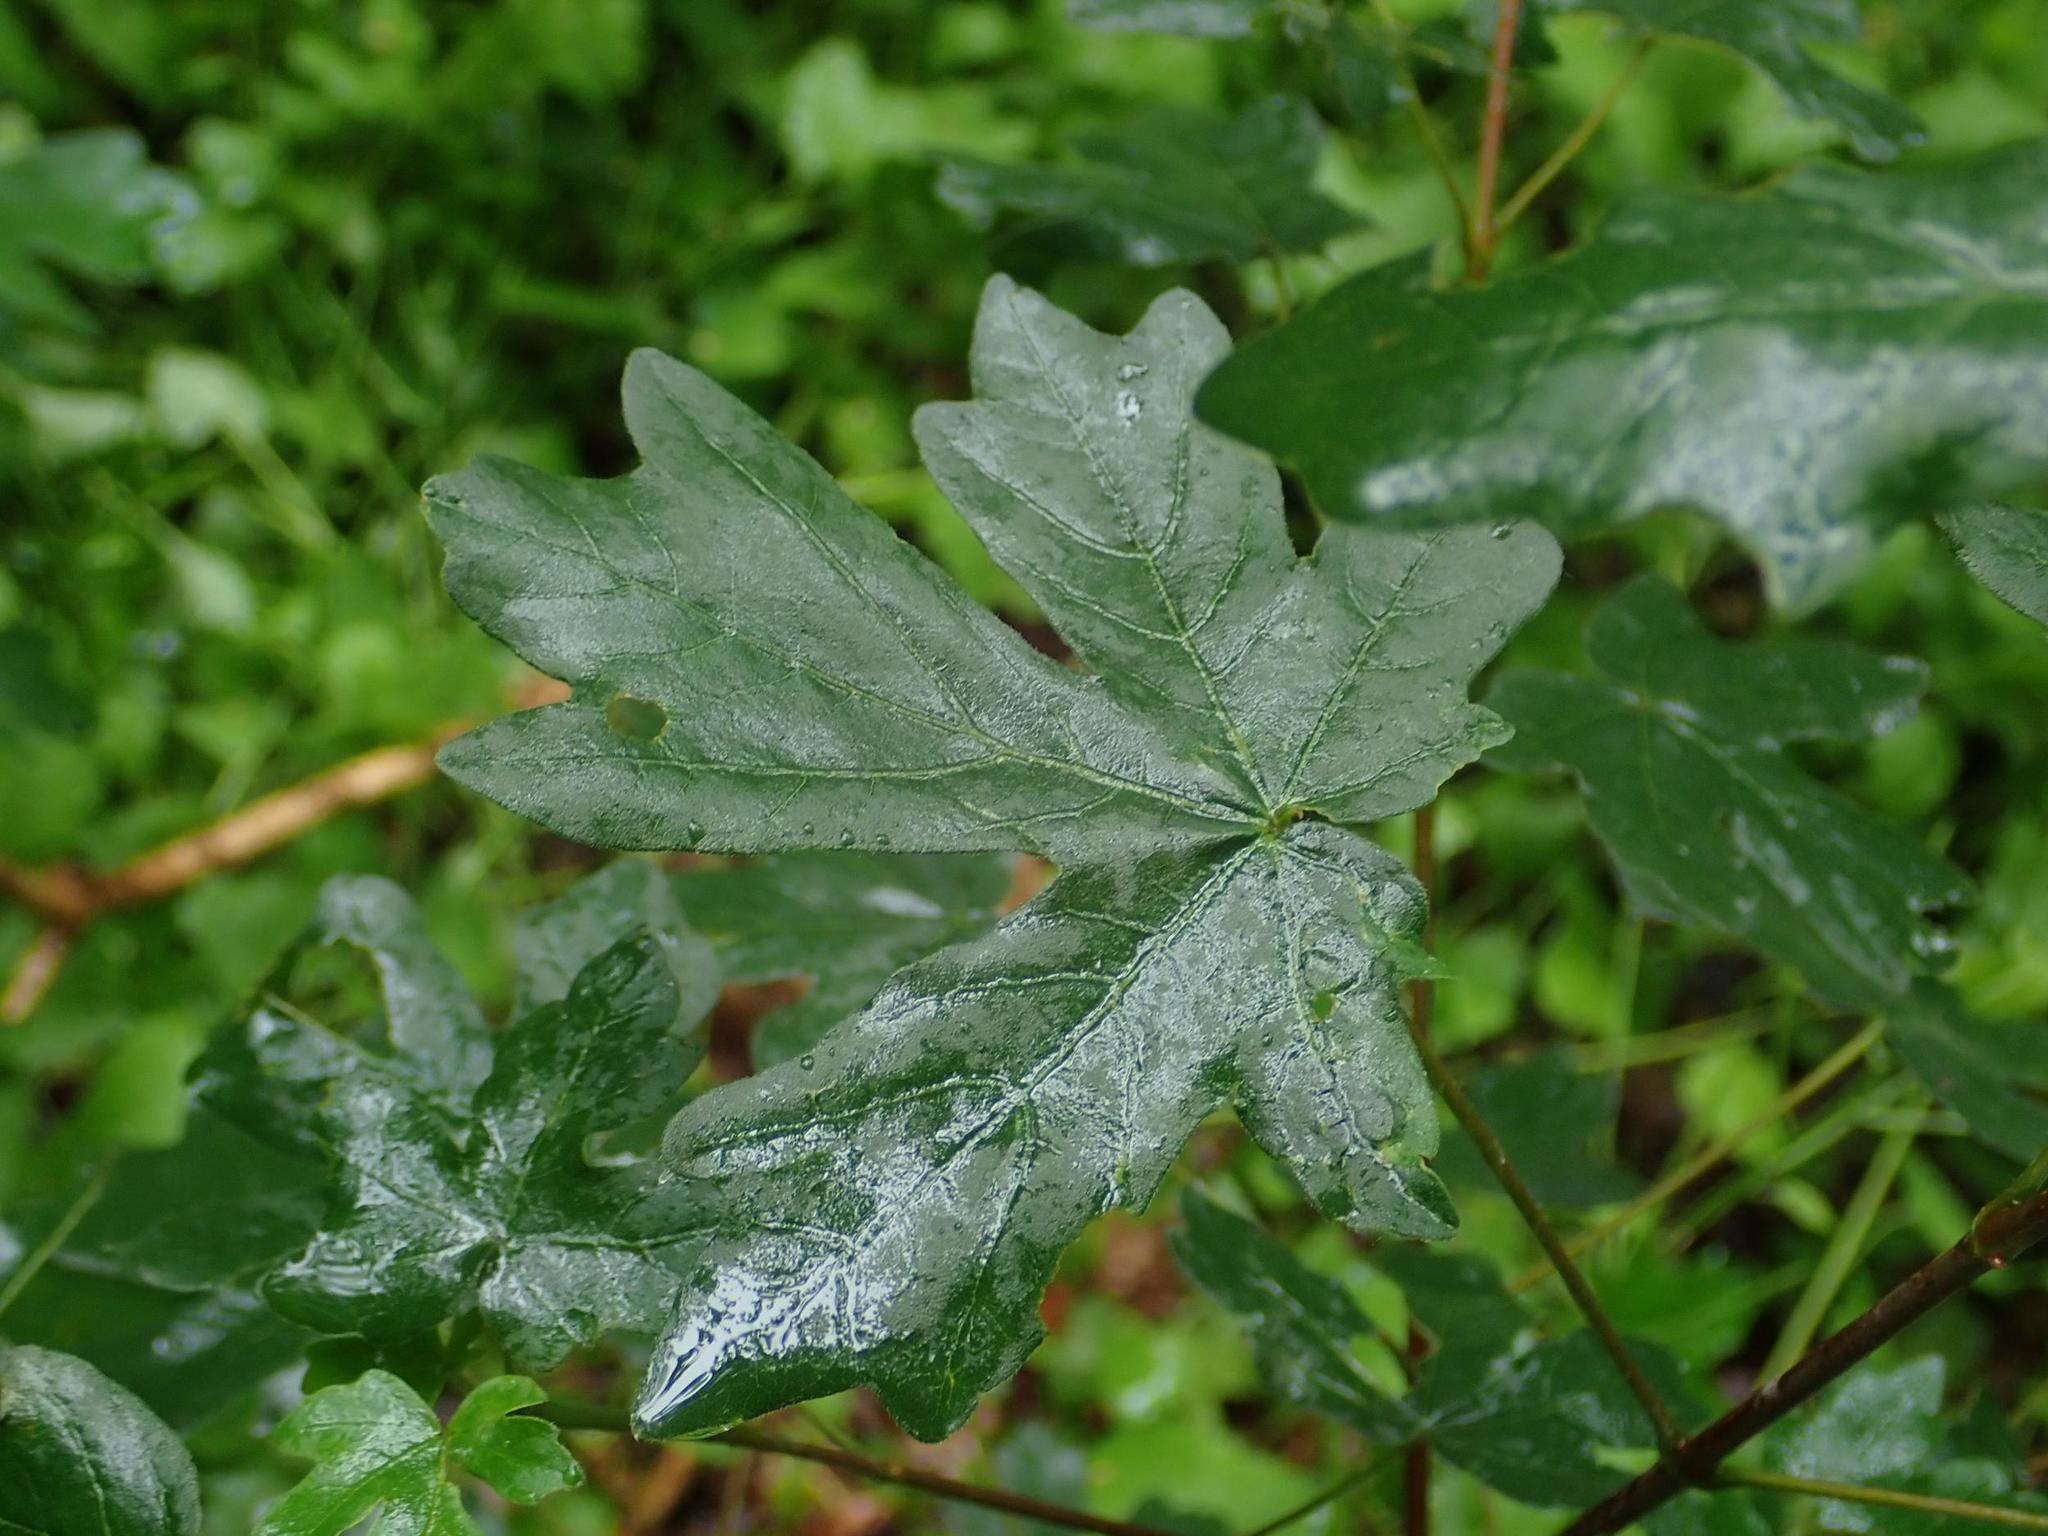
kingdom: Plantae
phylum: Tracheophyta
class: Magnoliopsida
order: Sapindales
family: Sapindaceae
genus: Acer
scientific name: Acer campestre
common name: Field maple
